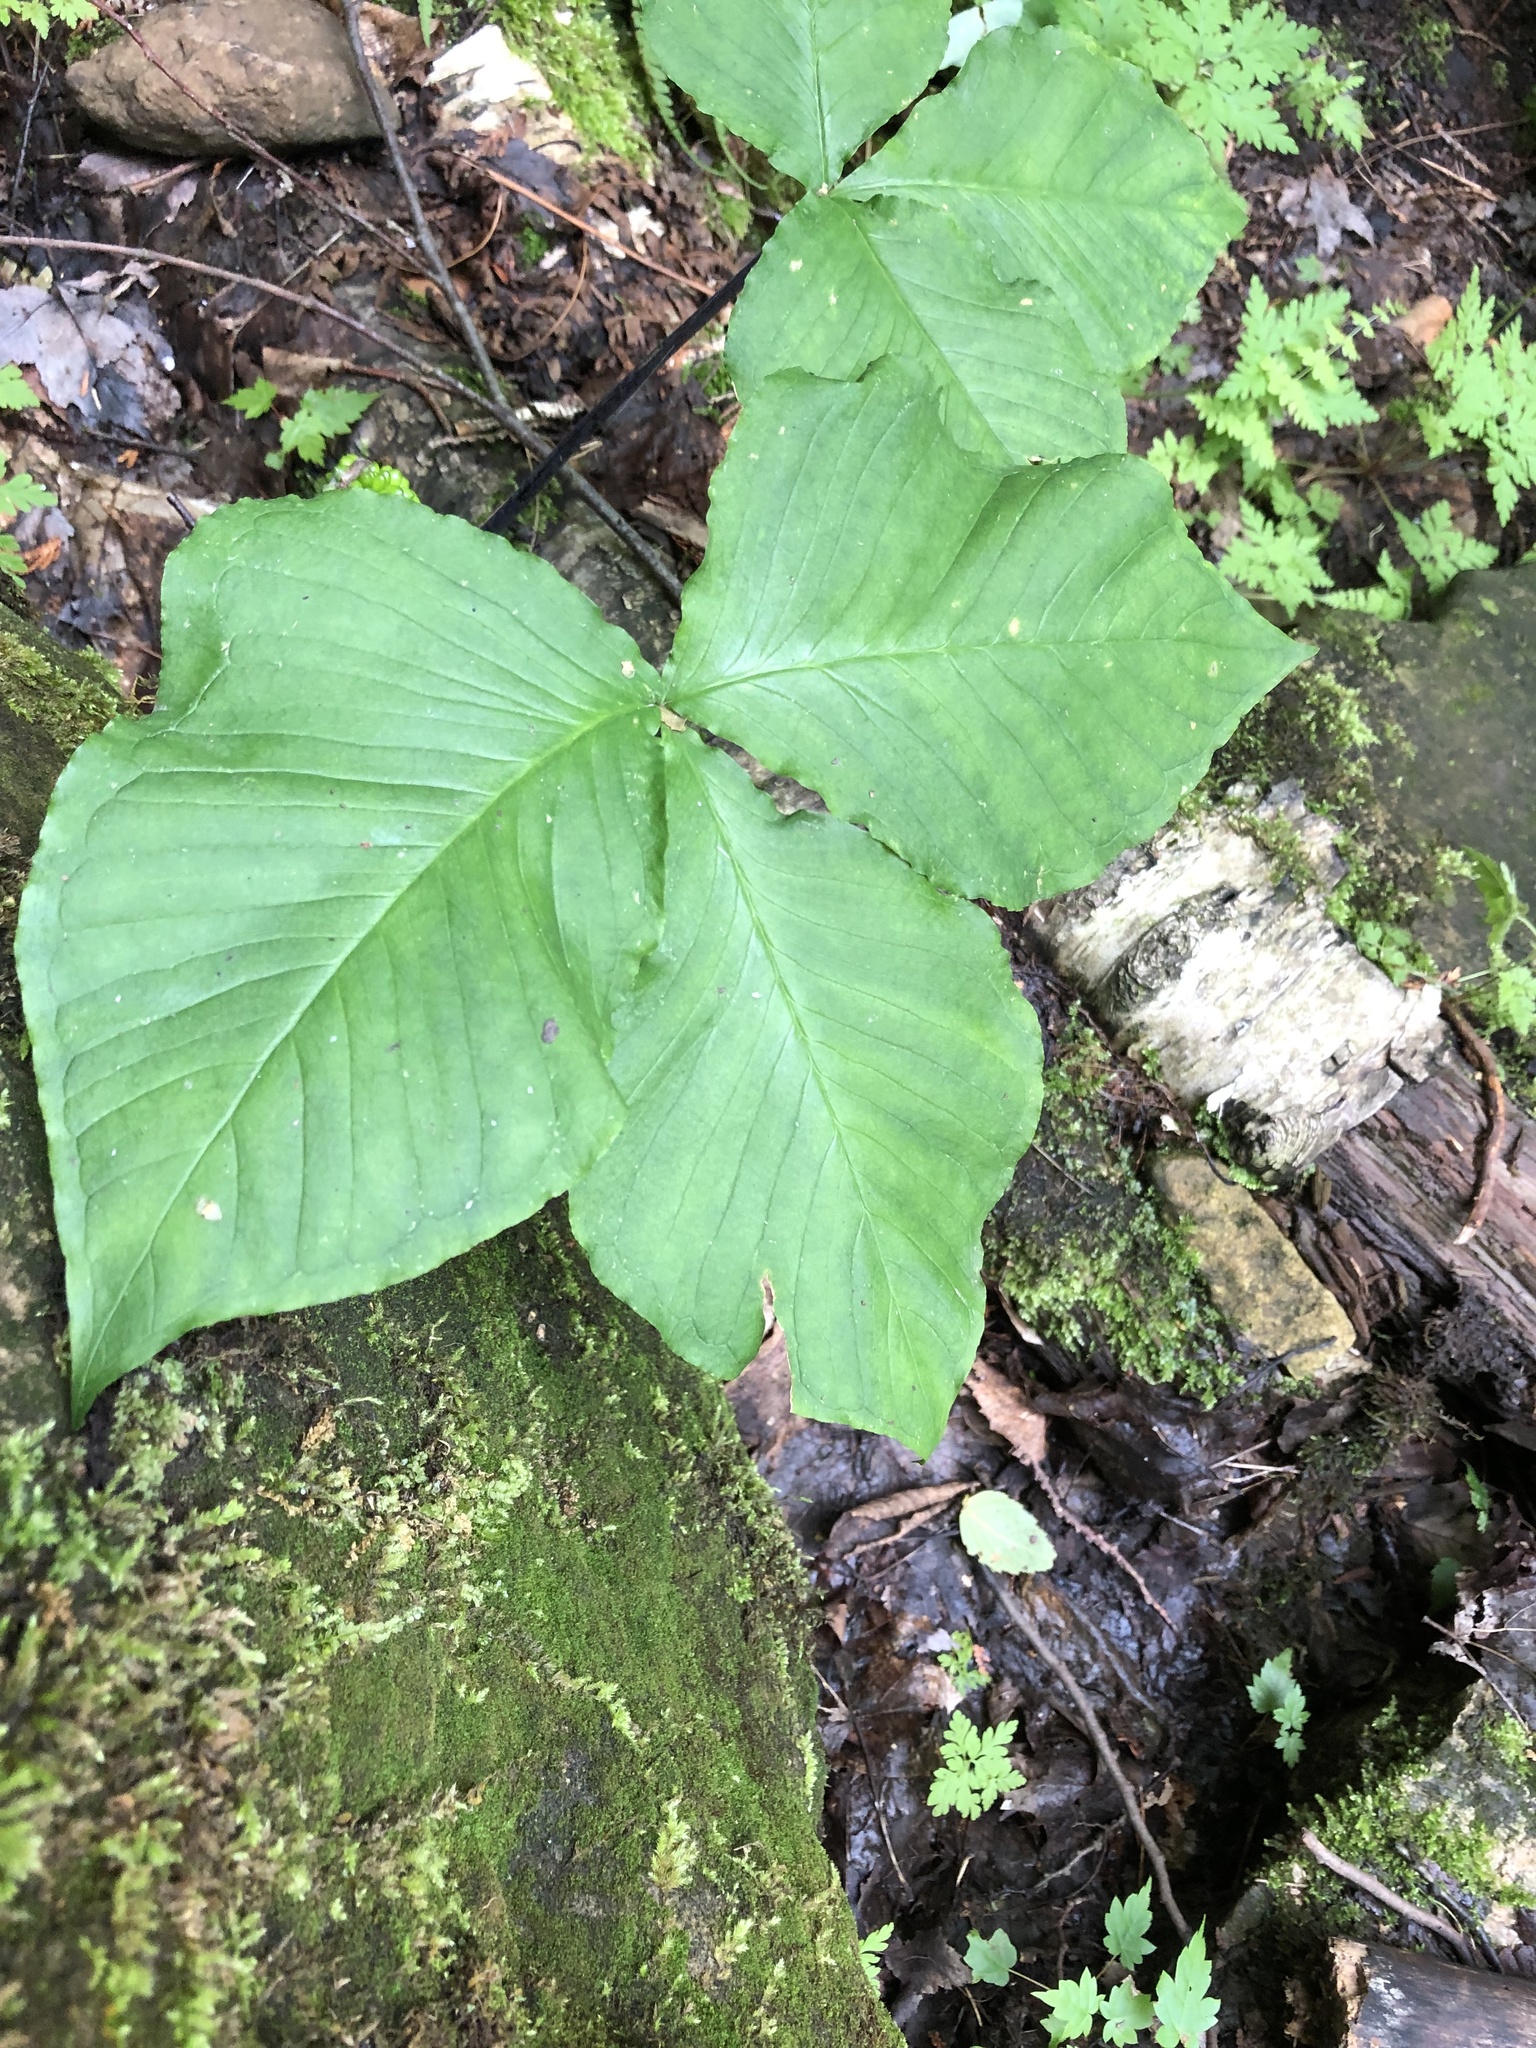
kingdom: Plantae
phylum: Tracheophyta
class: Liliopsida
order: Alismatales
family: Araceae
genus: Arisaema
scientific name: Arisaema triphyllum
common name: Jack-in-the-pulpit
